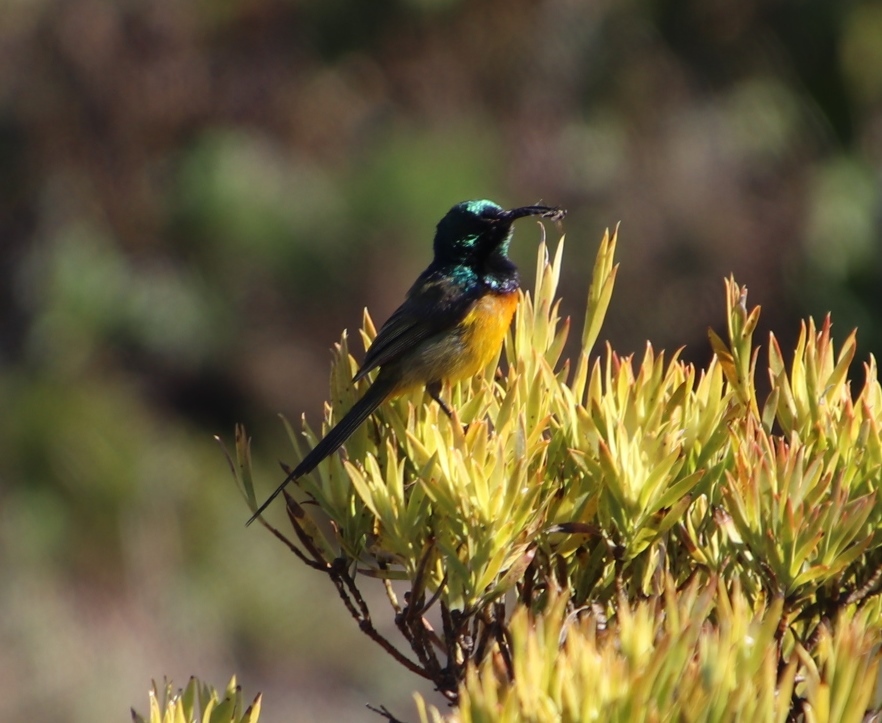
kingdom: Animalia
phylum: Chordata
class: Aves
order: Passeriformes
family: Nectariniidae
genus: Anthobaphes
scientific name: Anthobaphes violacea
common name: Orange-breasted sunbird
